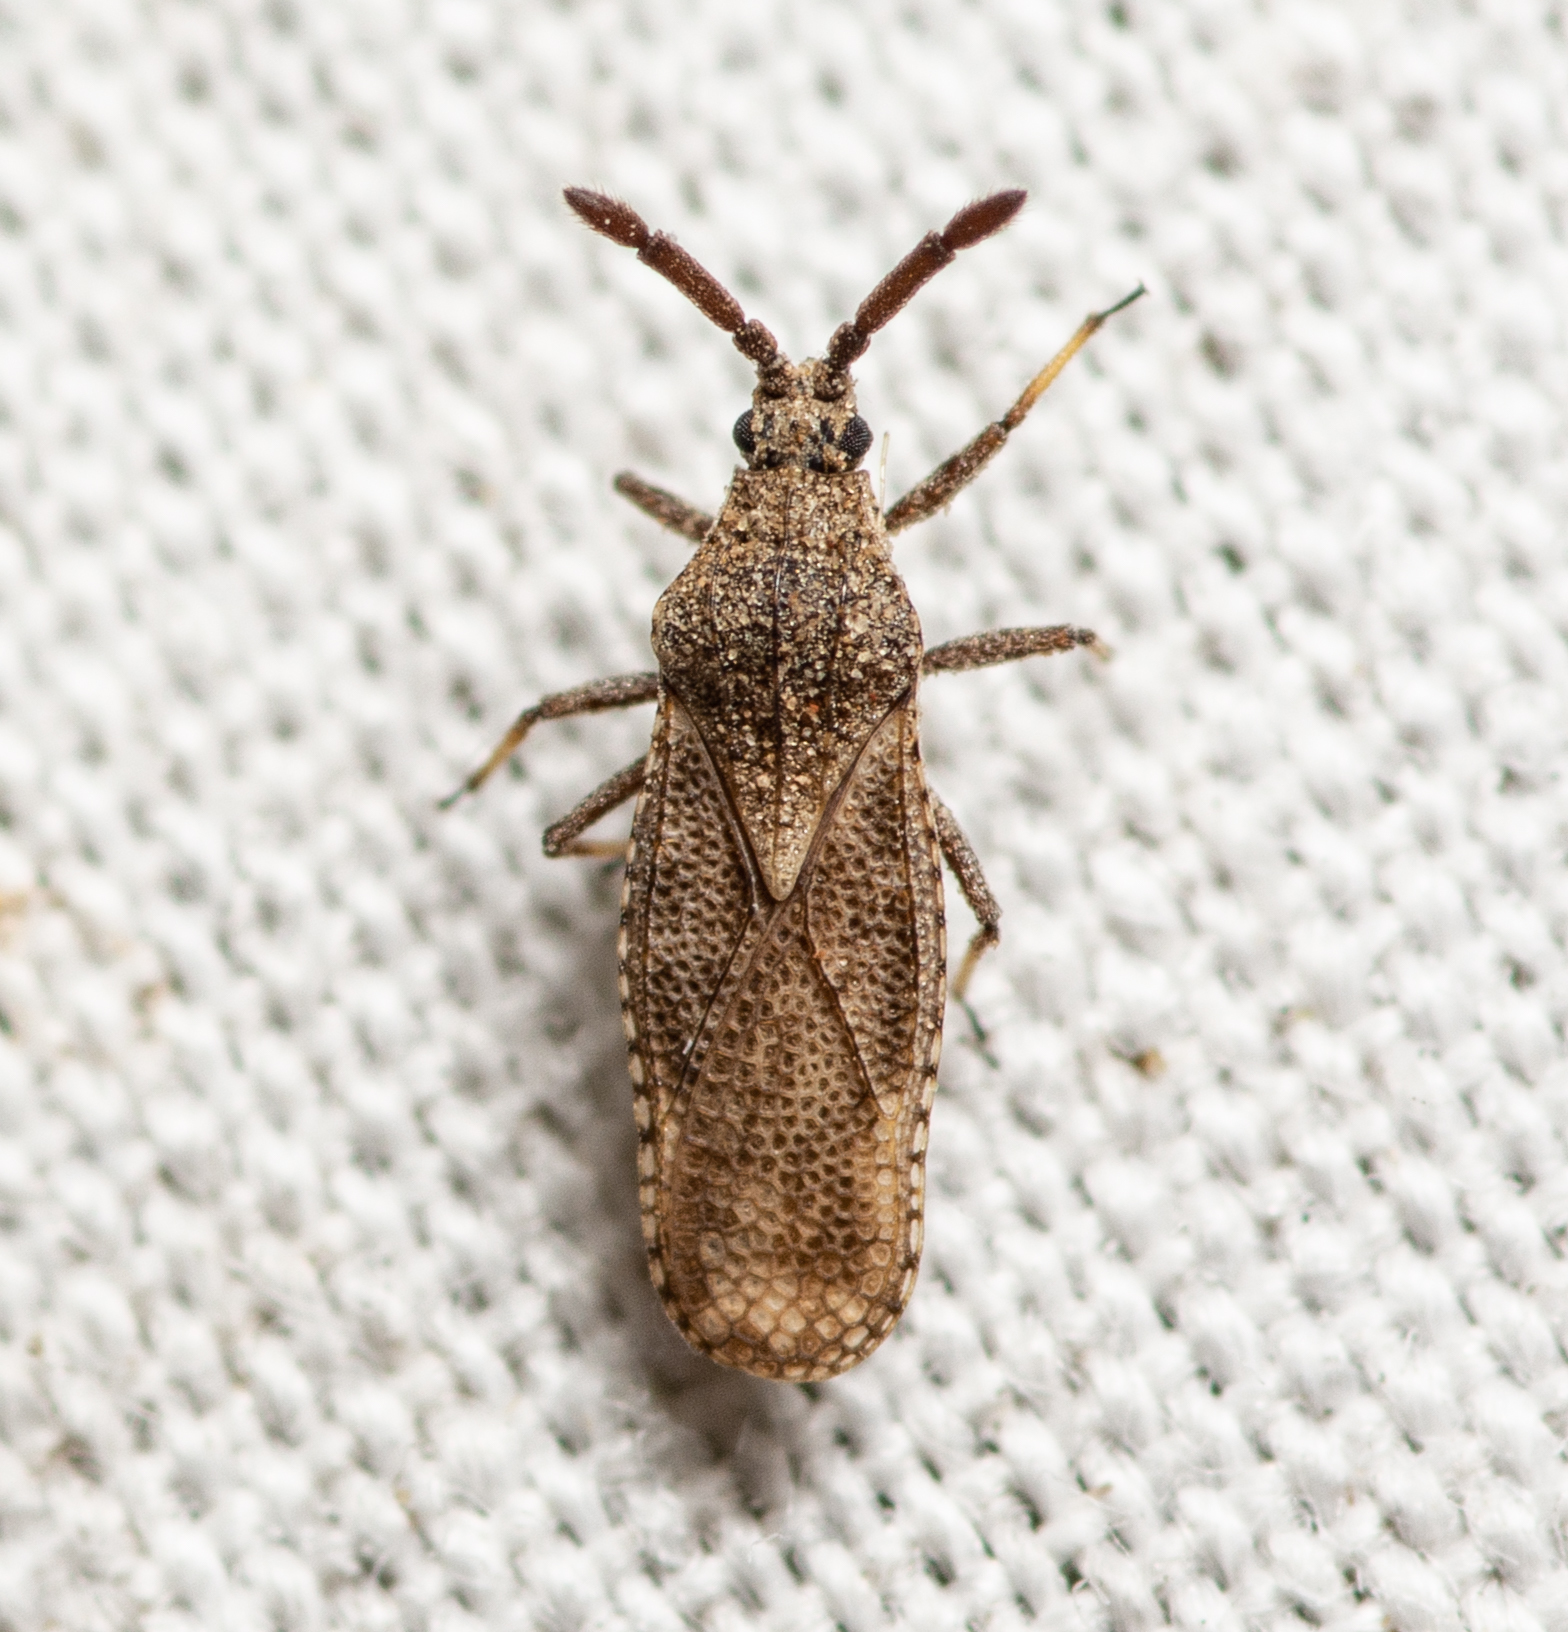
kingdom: Animalia
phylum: Arthropoda
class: Insecta
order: Hemiptera
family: Tingidae
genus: Teleonemia
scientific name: Teleonemia scrupulosa
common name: Lantana lace bug
